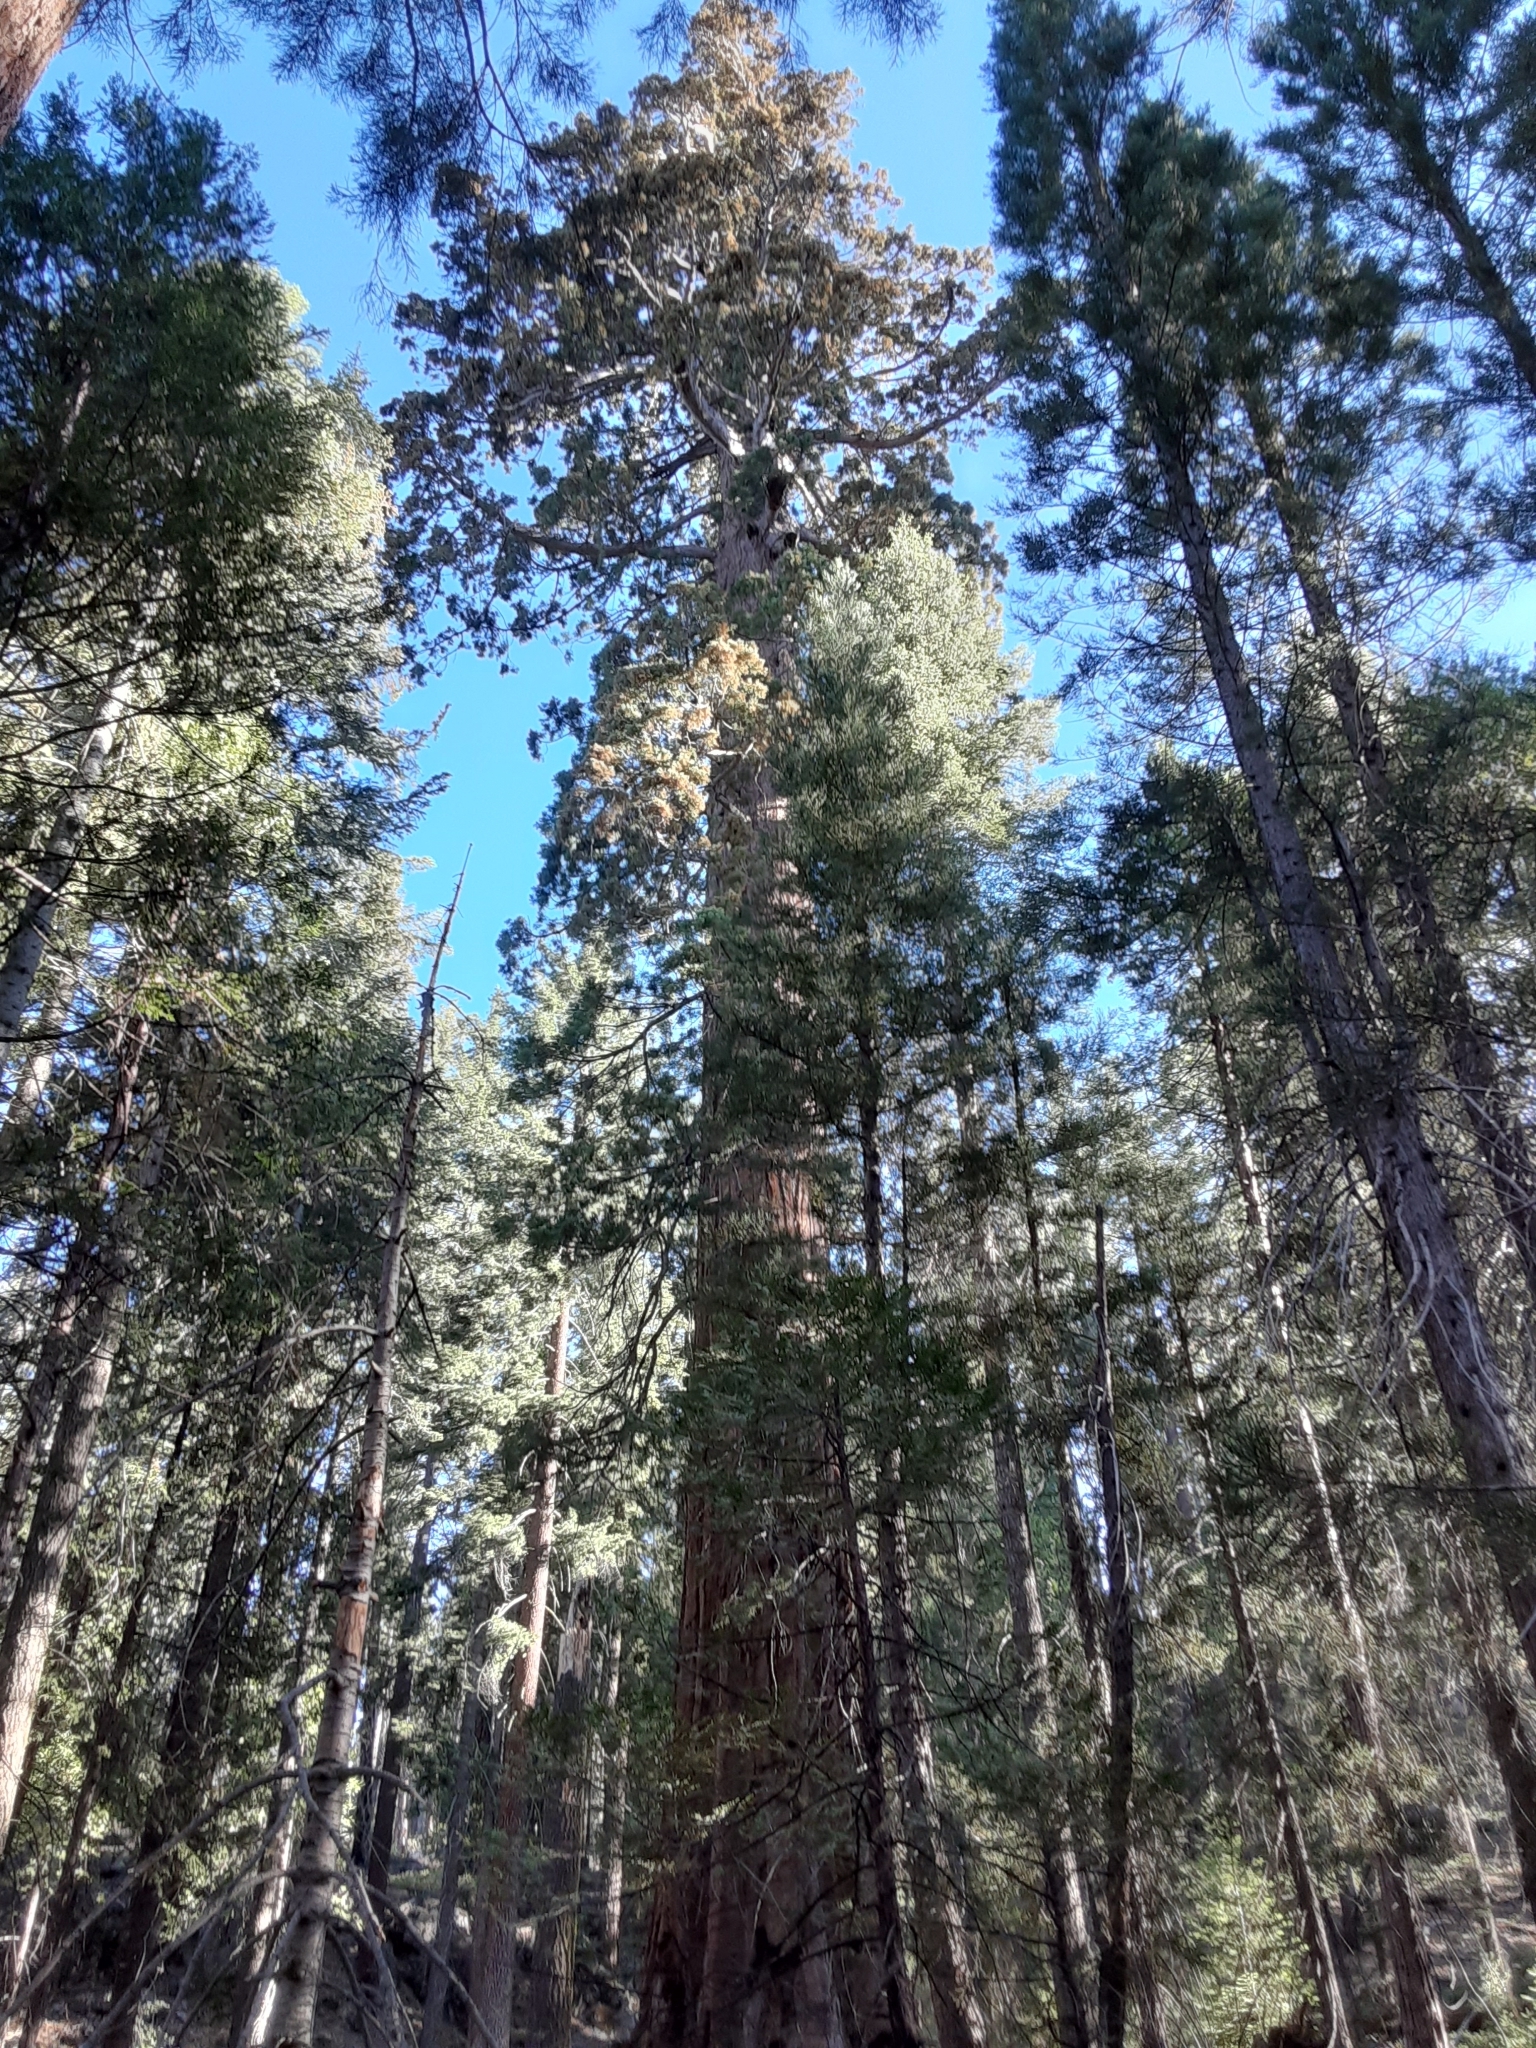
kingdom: Plantae
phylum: Tracheophyta
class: Pinopsida
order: Pinales
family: Cupressaceae
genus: Sequoiadendron
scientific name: Sequoiadendron giganteum
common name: Wellingtonia
